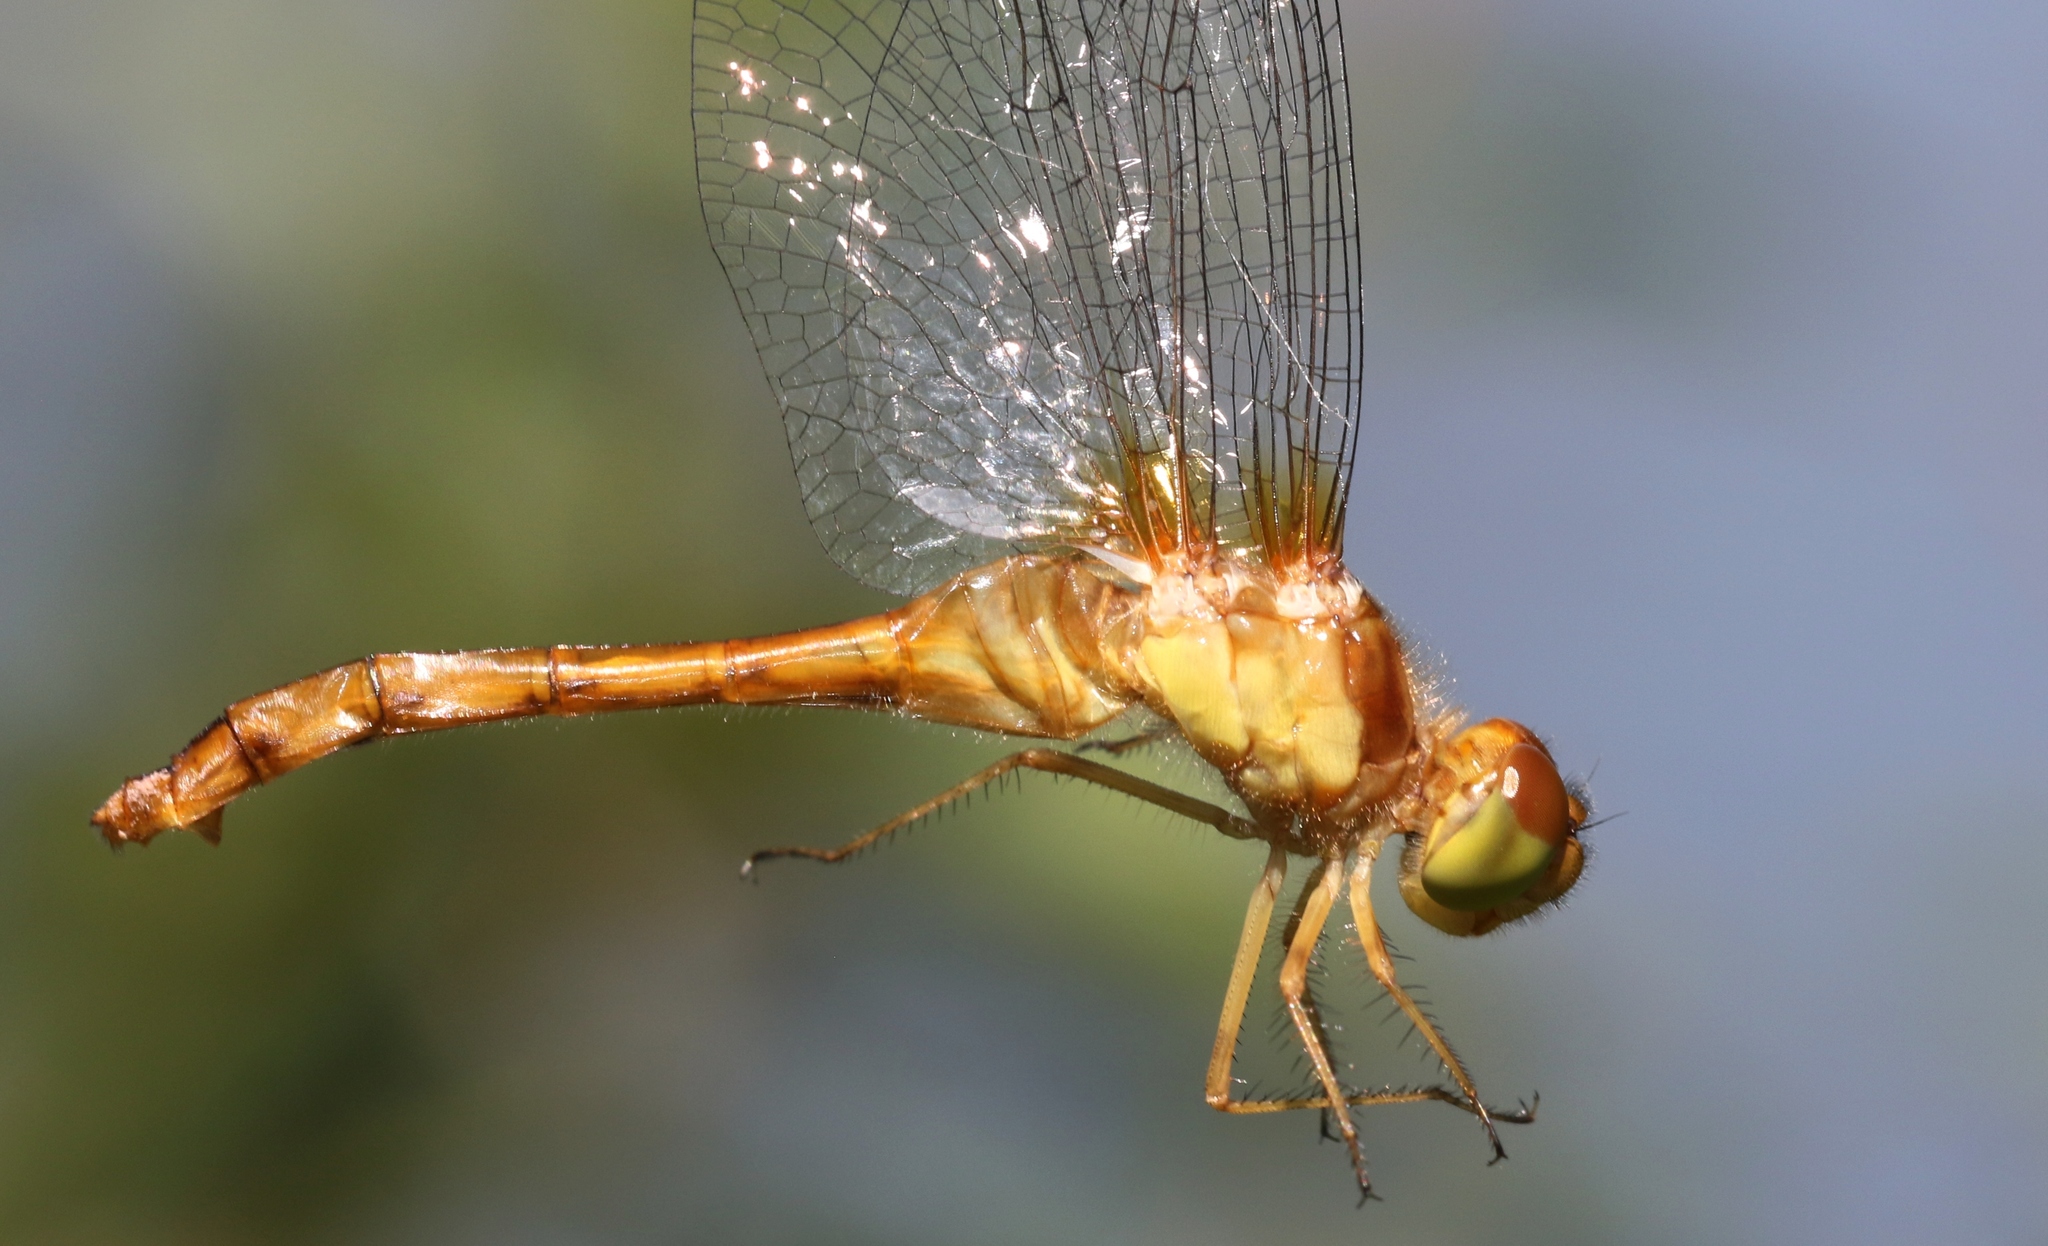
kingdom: Animalia
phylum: Arthropoda
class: Insecta
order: Odonata
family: Libellulidae
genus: Sympetrum
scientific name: Sympetrum vicinum
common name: Autumn meadowhawk
